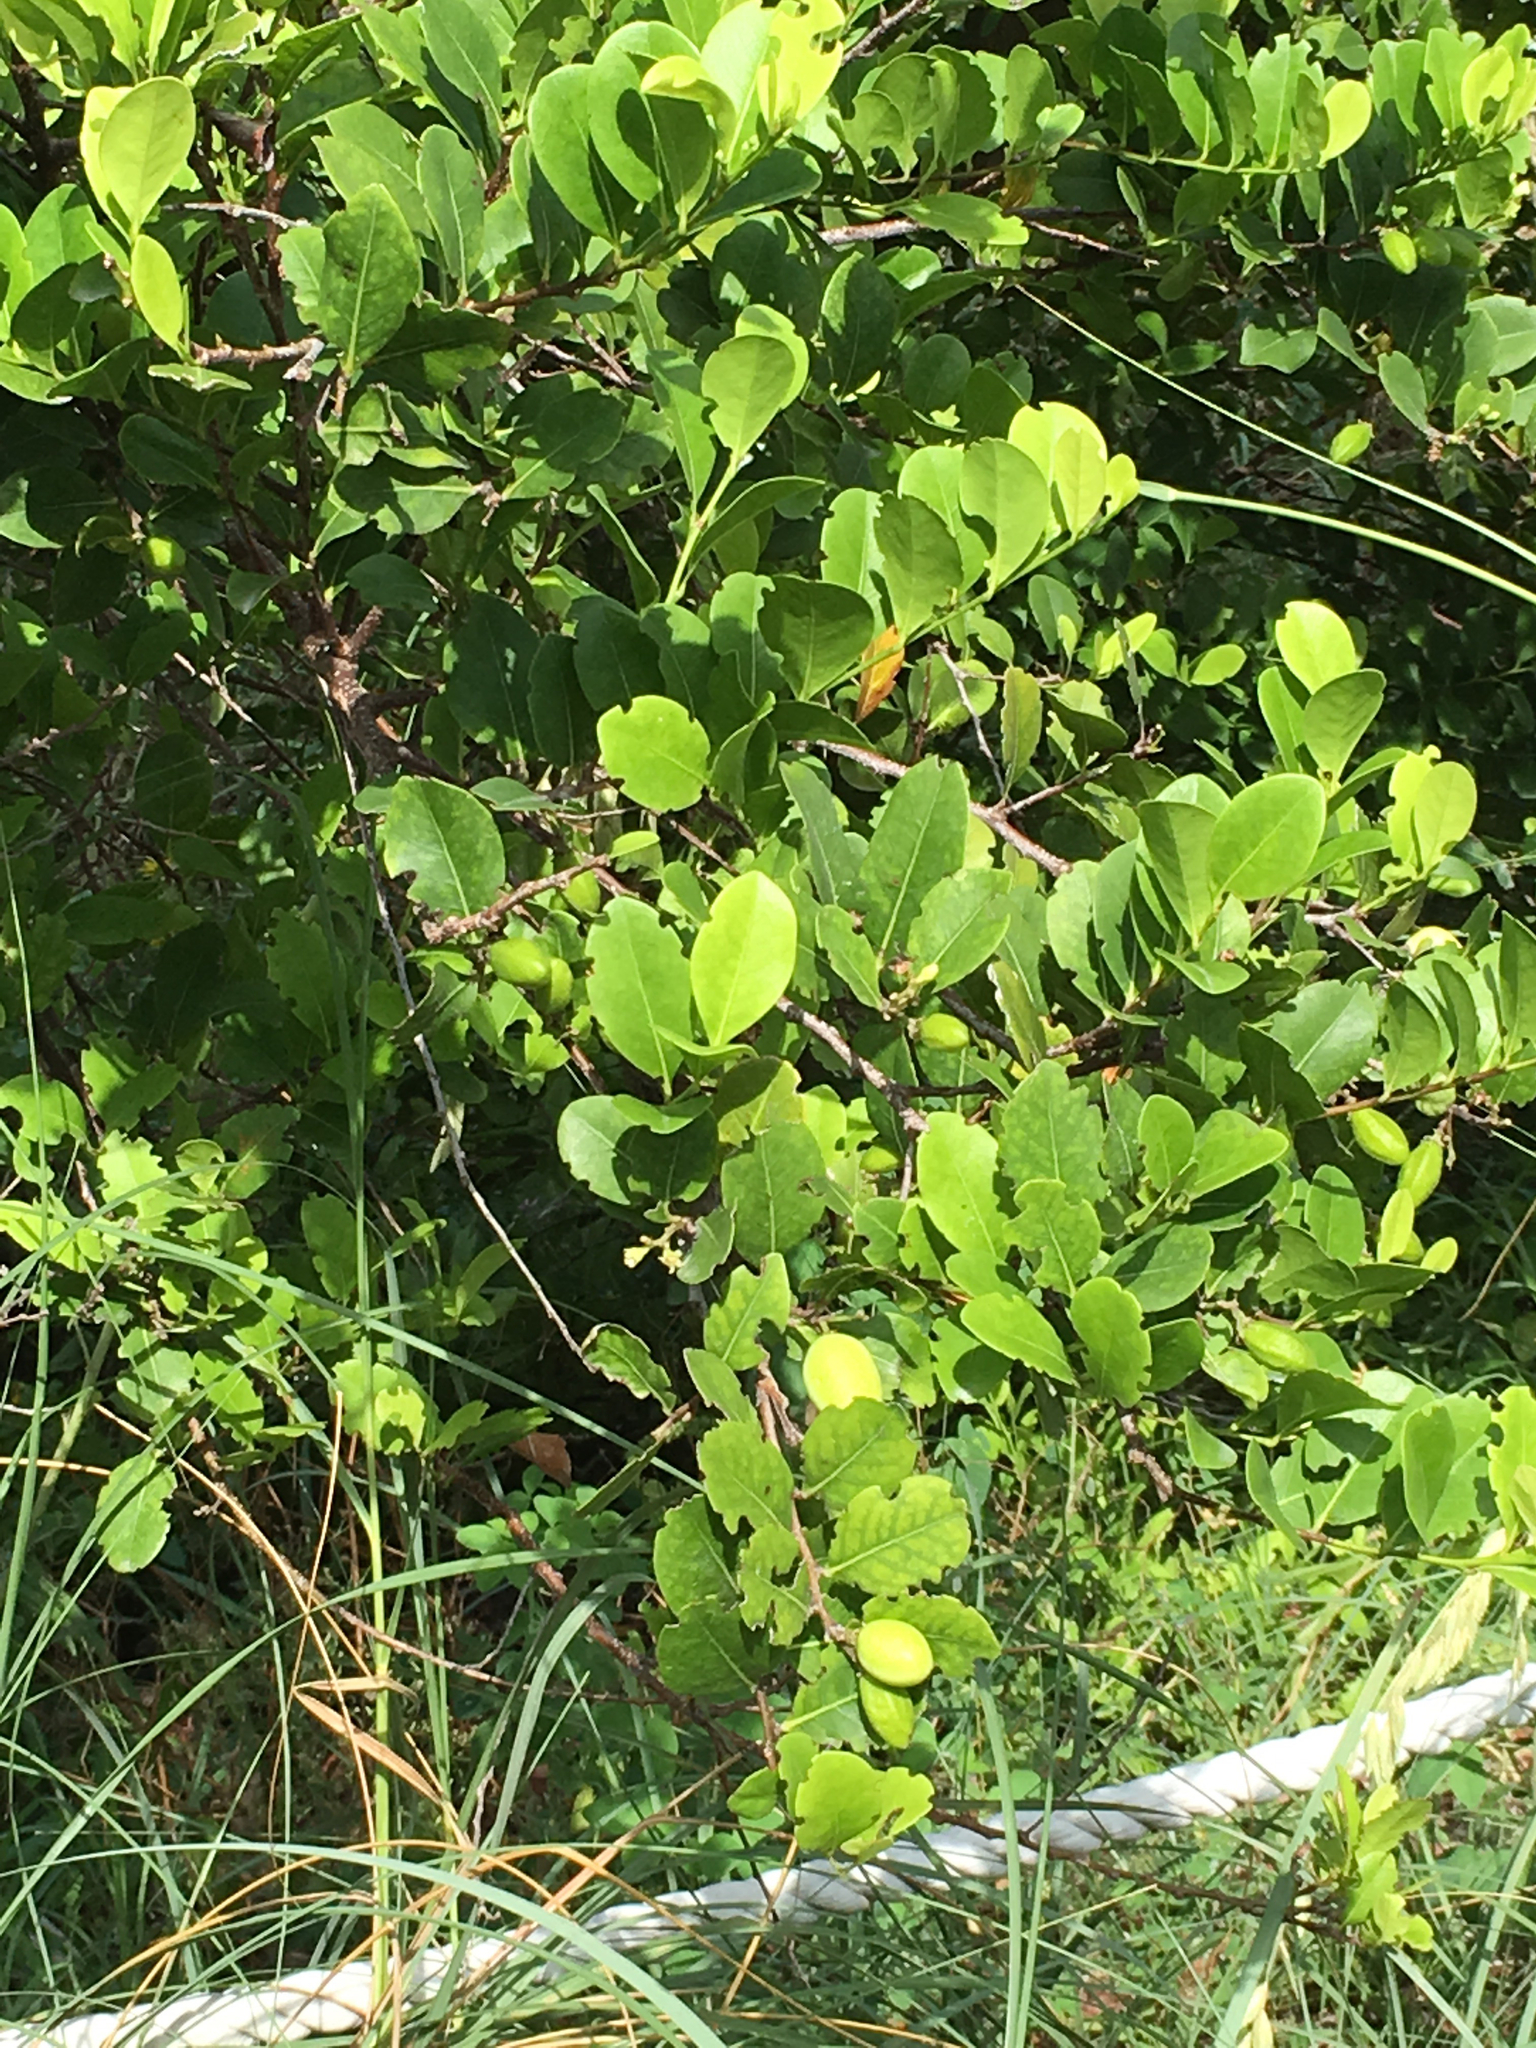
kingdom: Plantae
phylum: Tracheophyta
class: Magnoliopsida
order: Malpighiales
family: Chrysobalanaceae
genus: Chrysobalanus
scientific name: Chrysobalanus icaco
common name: Coco plum
